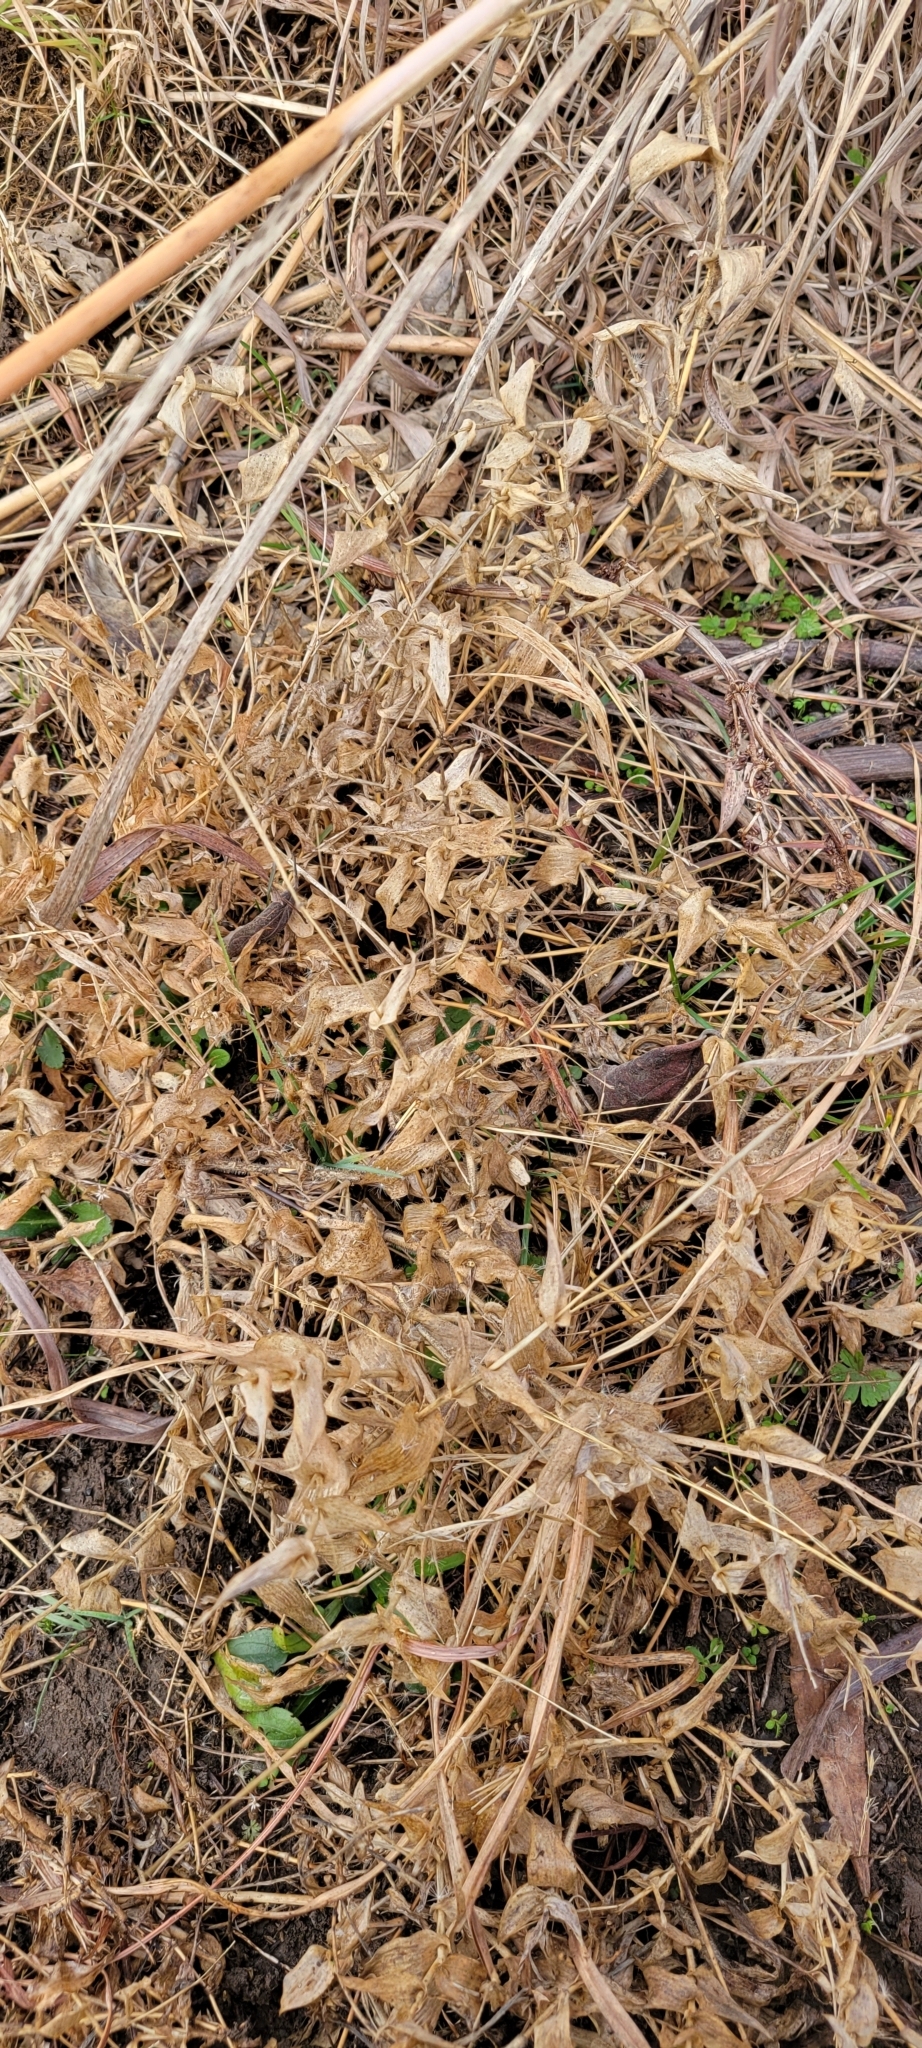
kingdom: Plantae
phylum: Tracheophyta
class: Liliopsida
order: Poales
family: Poaceae
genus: Arthraxon
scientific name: Arthraxon hispidus
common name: Small carpgrass
